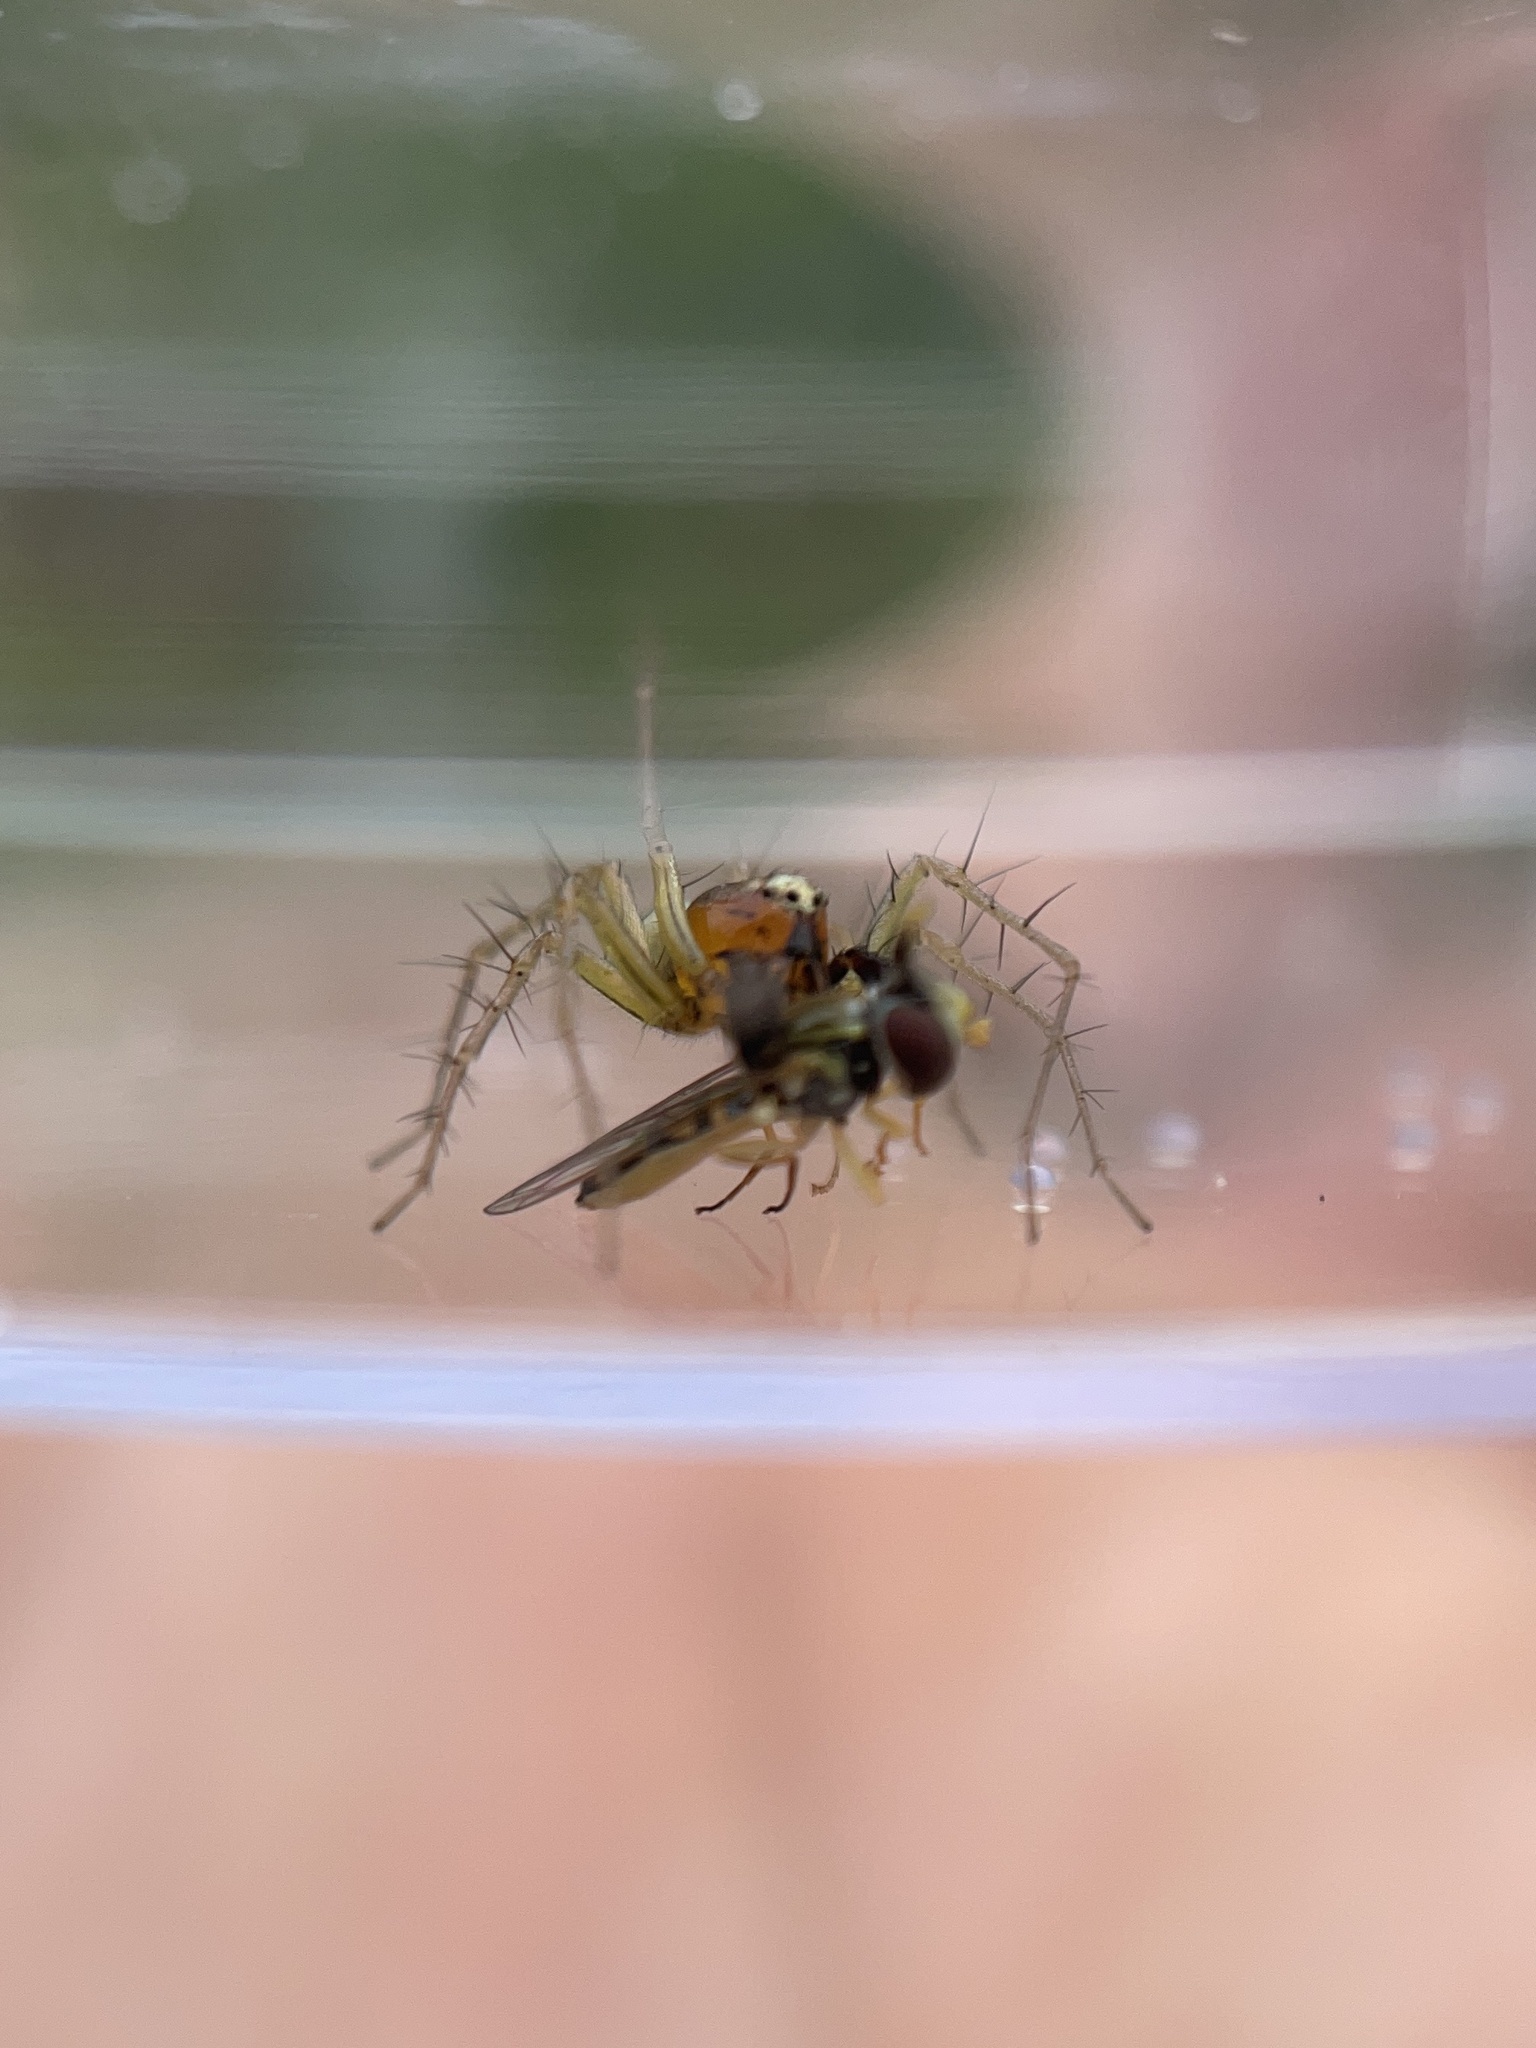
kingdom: Animalia
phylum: Arthropoda
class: Arachnida
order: Araneae
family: Oxyopidae
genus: Oxyopes
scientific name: Oxyopes salticus
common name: Lynx spiders
